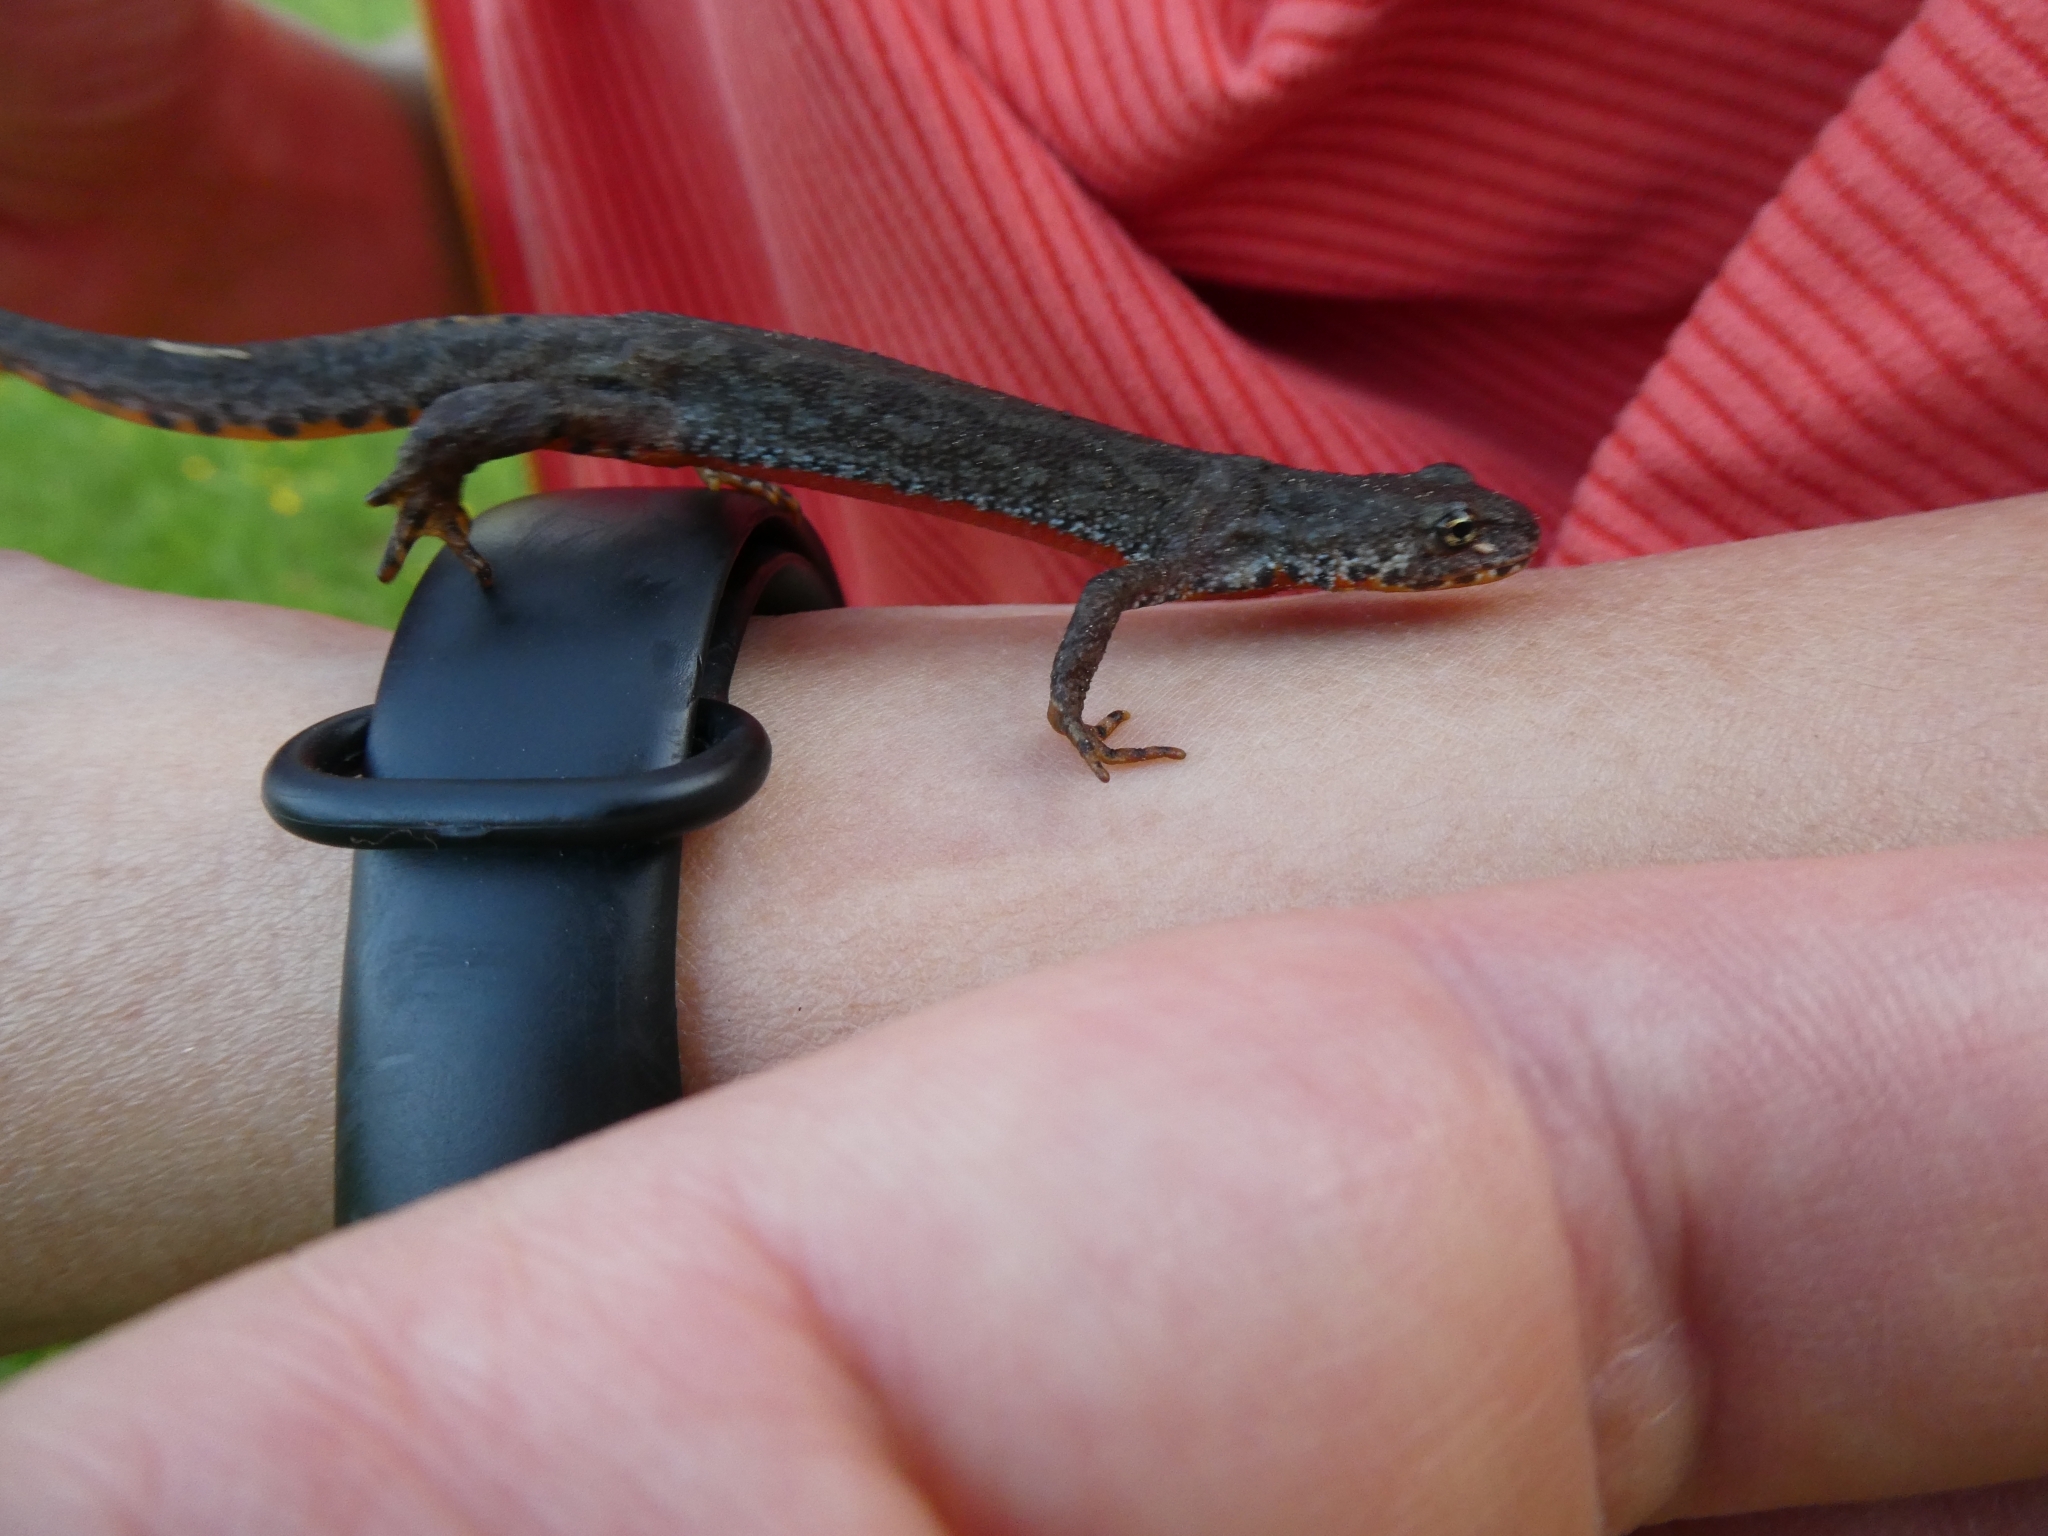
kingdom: Animalia
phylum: Chordata
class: Amphibia
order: Caudata
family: Salamandridae
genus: Ichthyosaura
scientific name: Ichthyosaura alpestris
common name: Alpine newt
